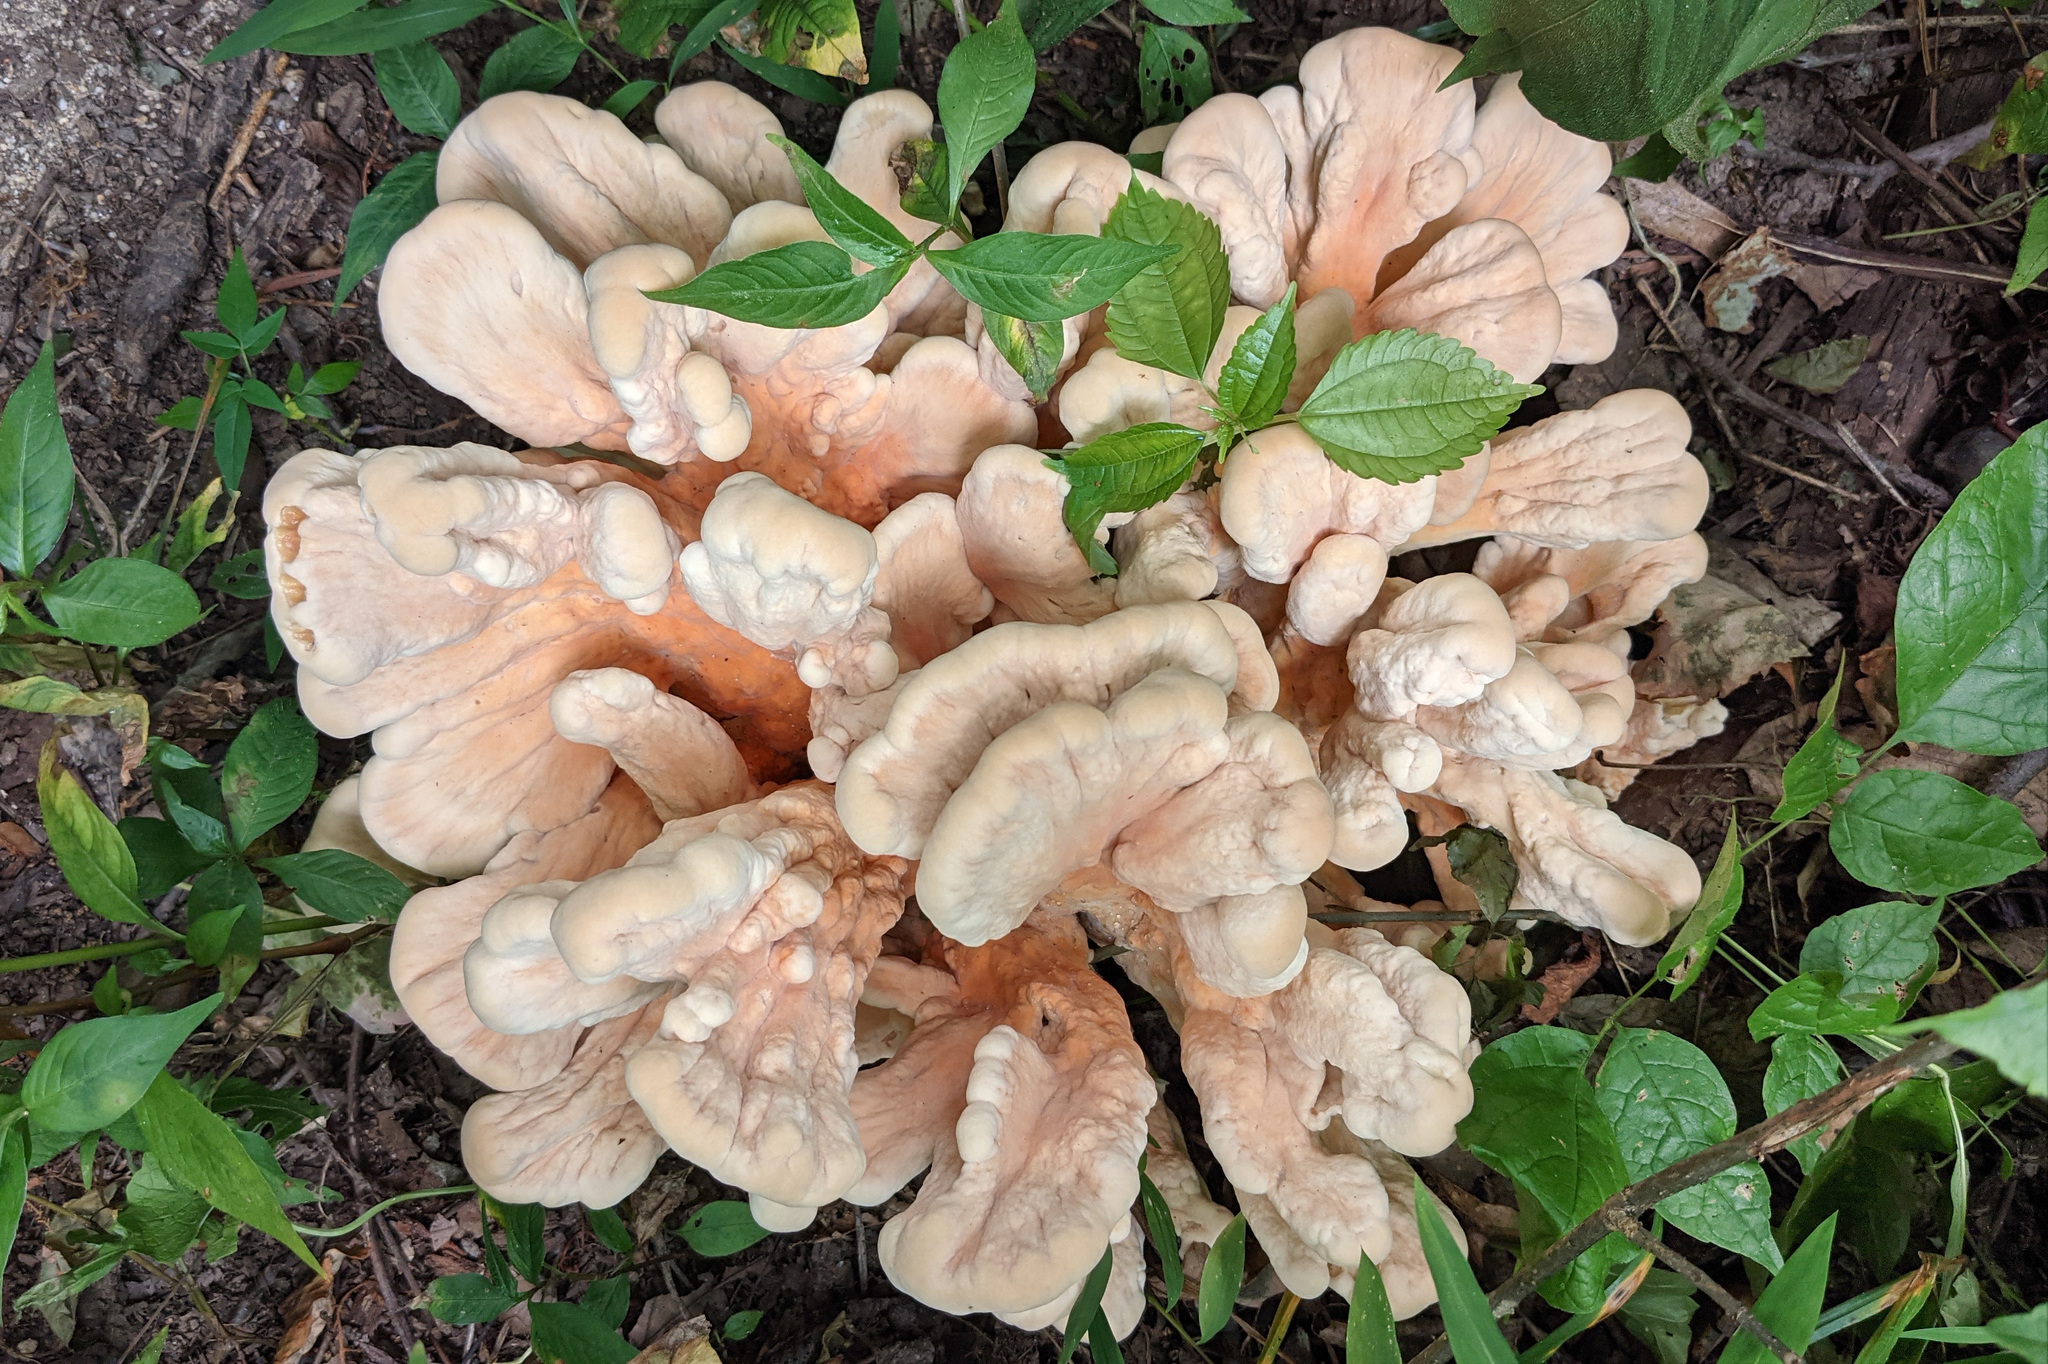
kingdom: Fungi
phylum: Basidiomycota
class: Agaricomycetes
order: Polyporales
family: Laetiporaceae
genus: Laetiporus
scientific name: Laetiporus sulphureus
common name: Chicken of the woods
